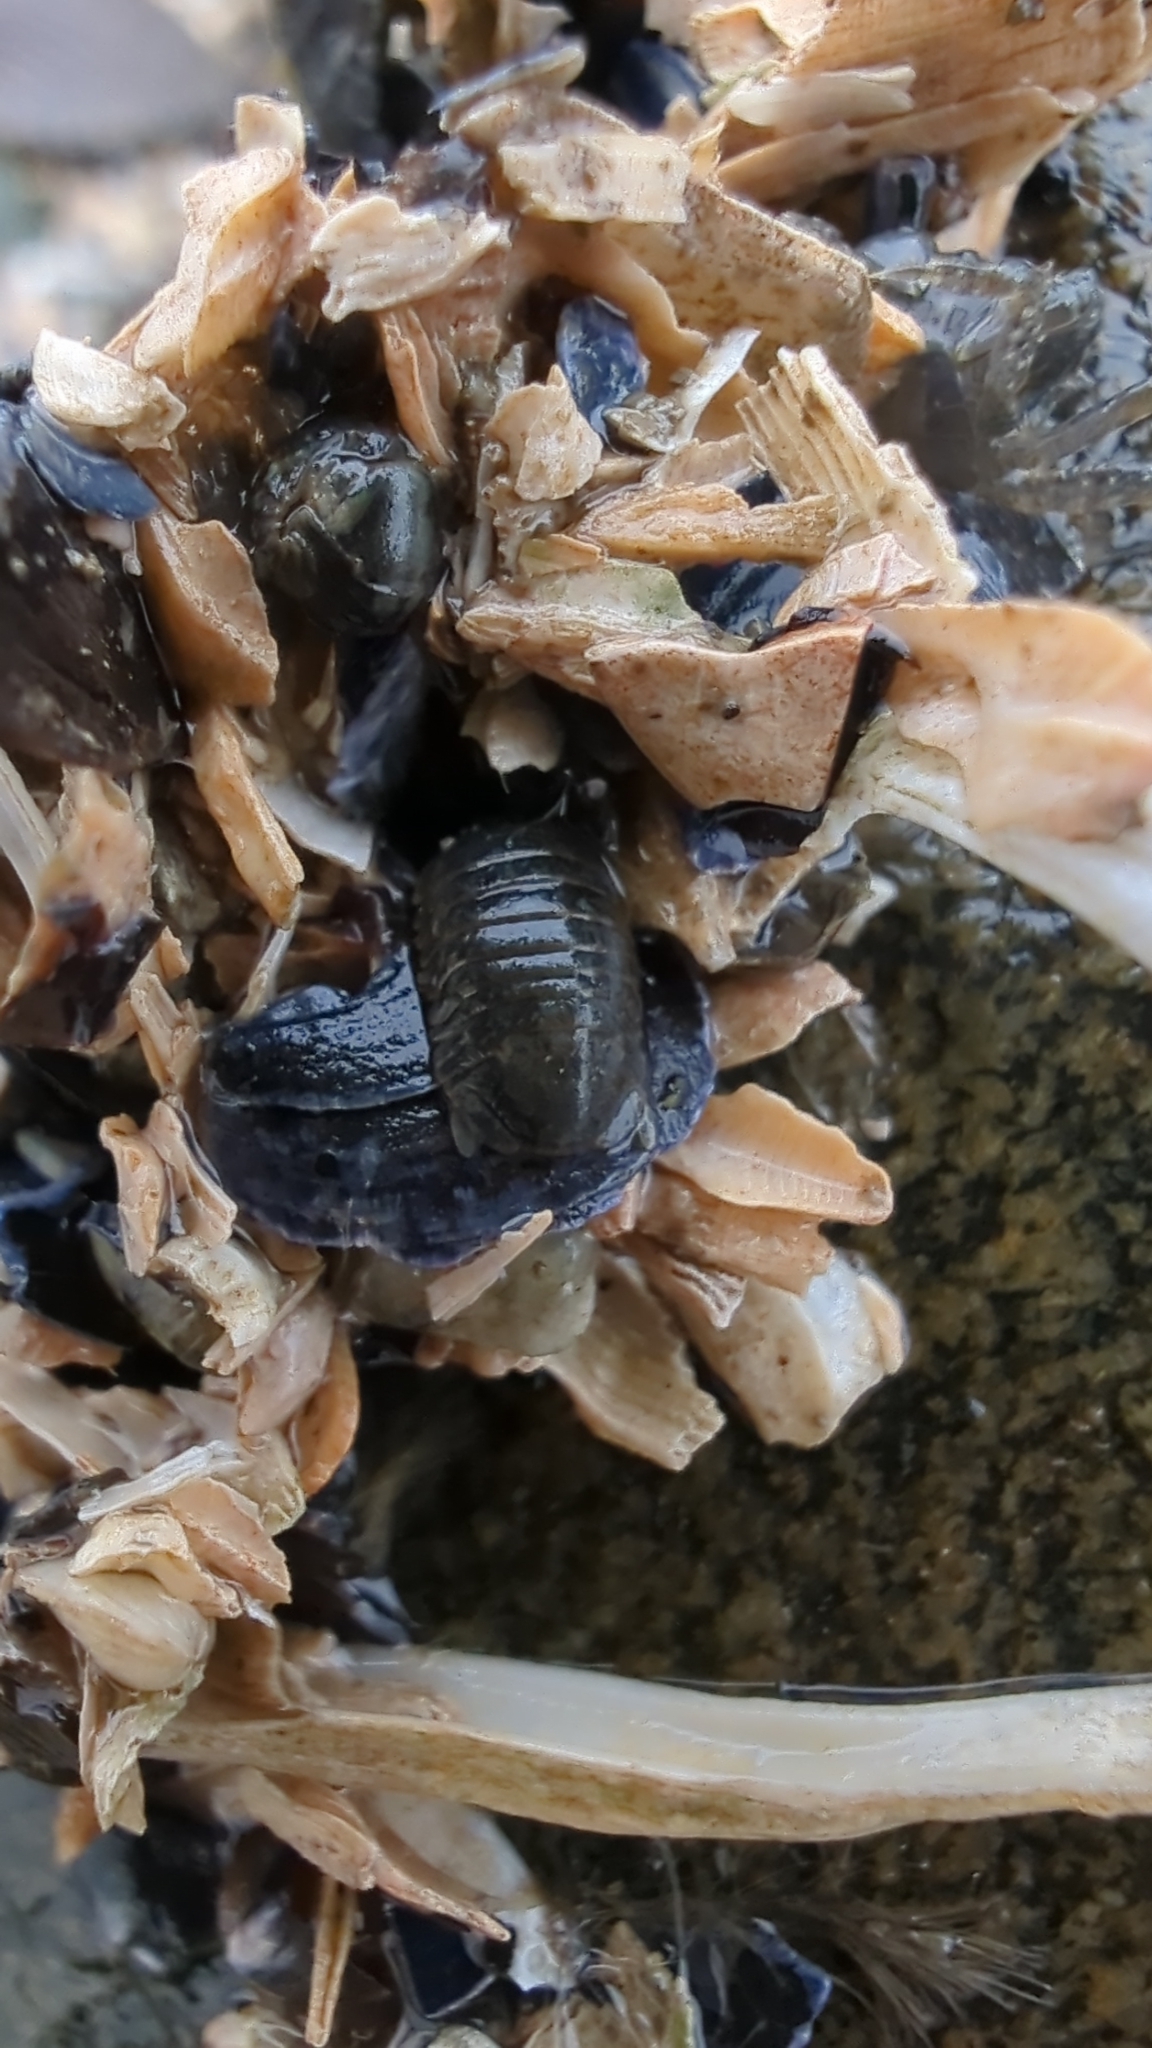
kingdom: Animalia
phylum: Arthropoda
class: Malacostraca
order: Isopoda
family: Sphaeromatidae
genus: Gnorimosphaeroma
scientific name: Gnorimosphaeroma oregonense
